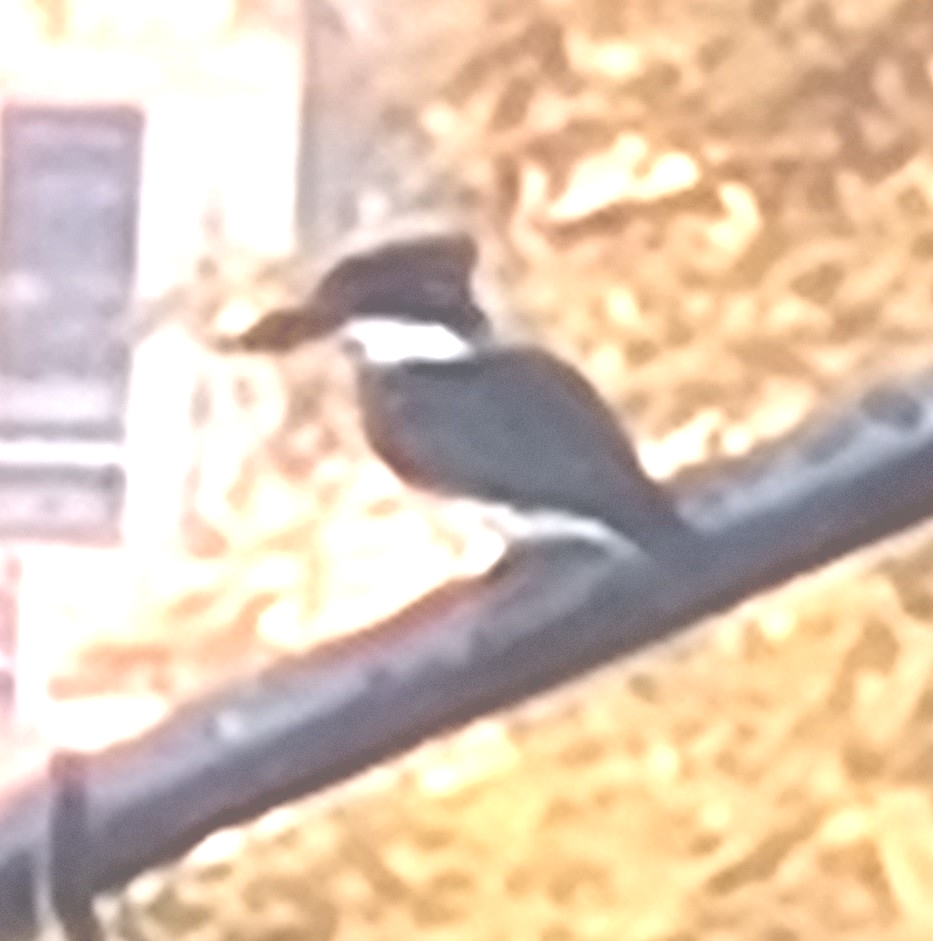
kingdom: Animalia
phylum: Chordata
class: Aves
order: Coraciiformes
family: Alcedinidae
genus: Chloroceryle
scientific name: Chloroceryle amazona
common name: Amazon kingfisher
